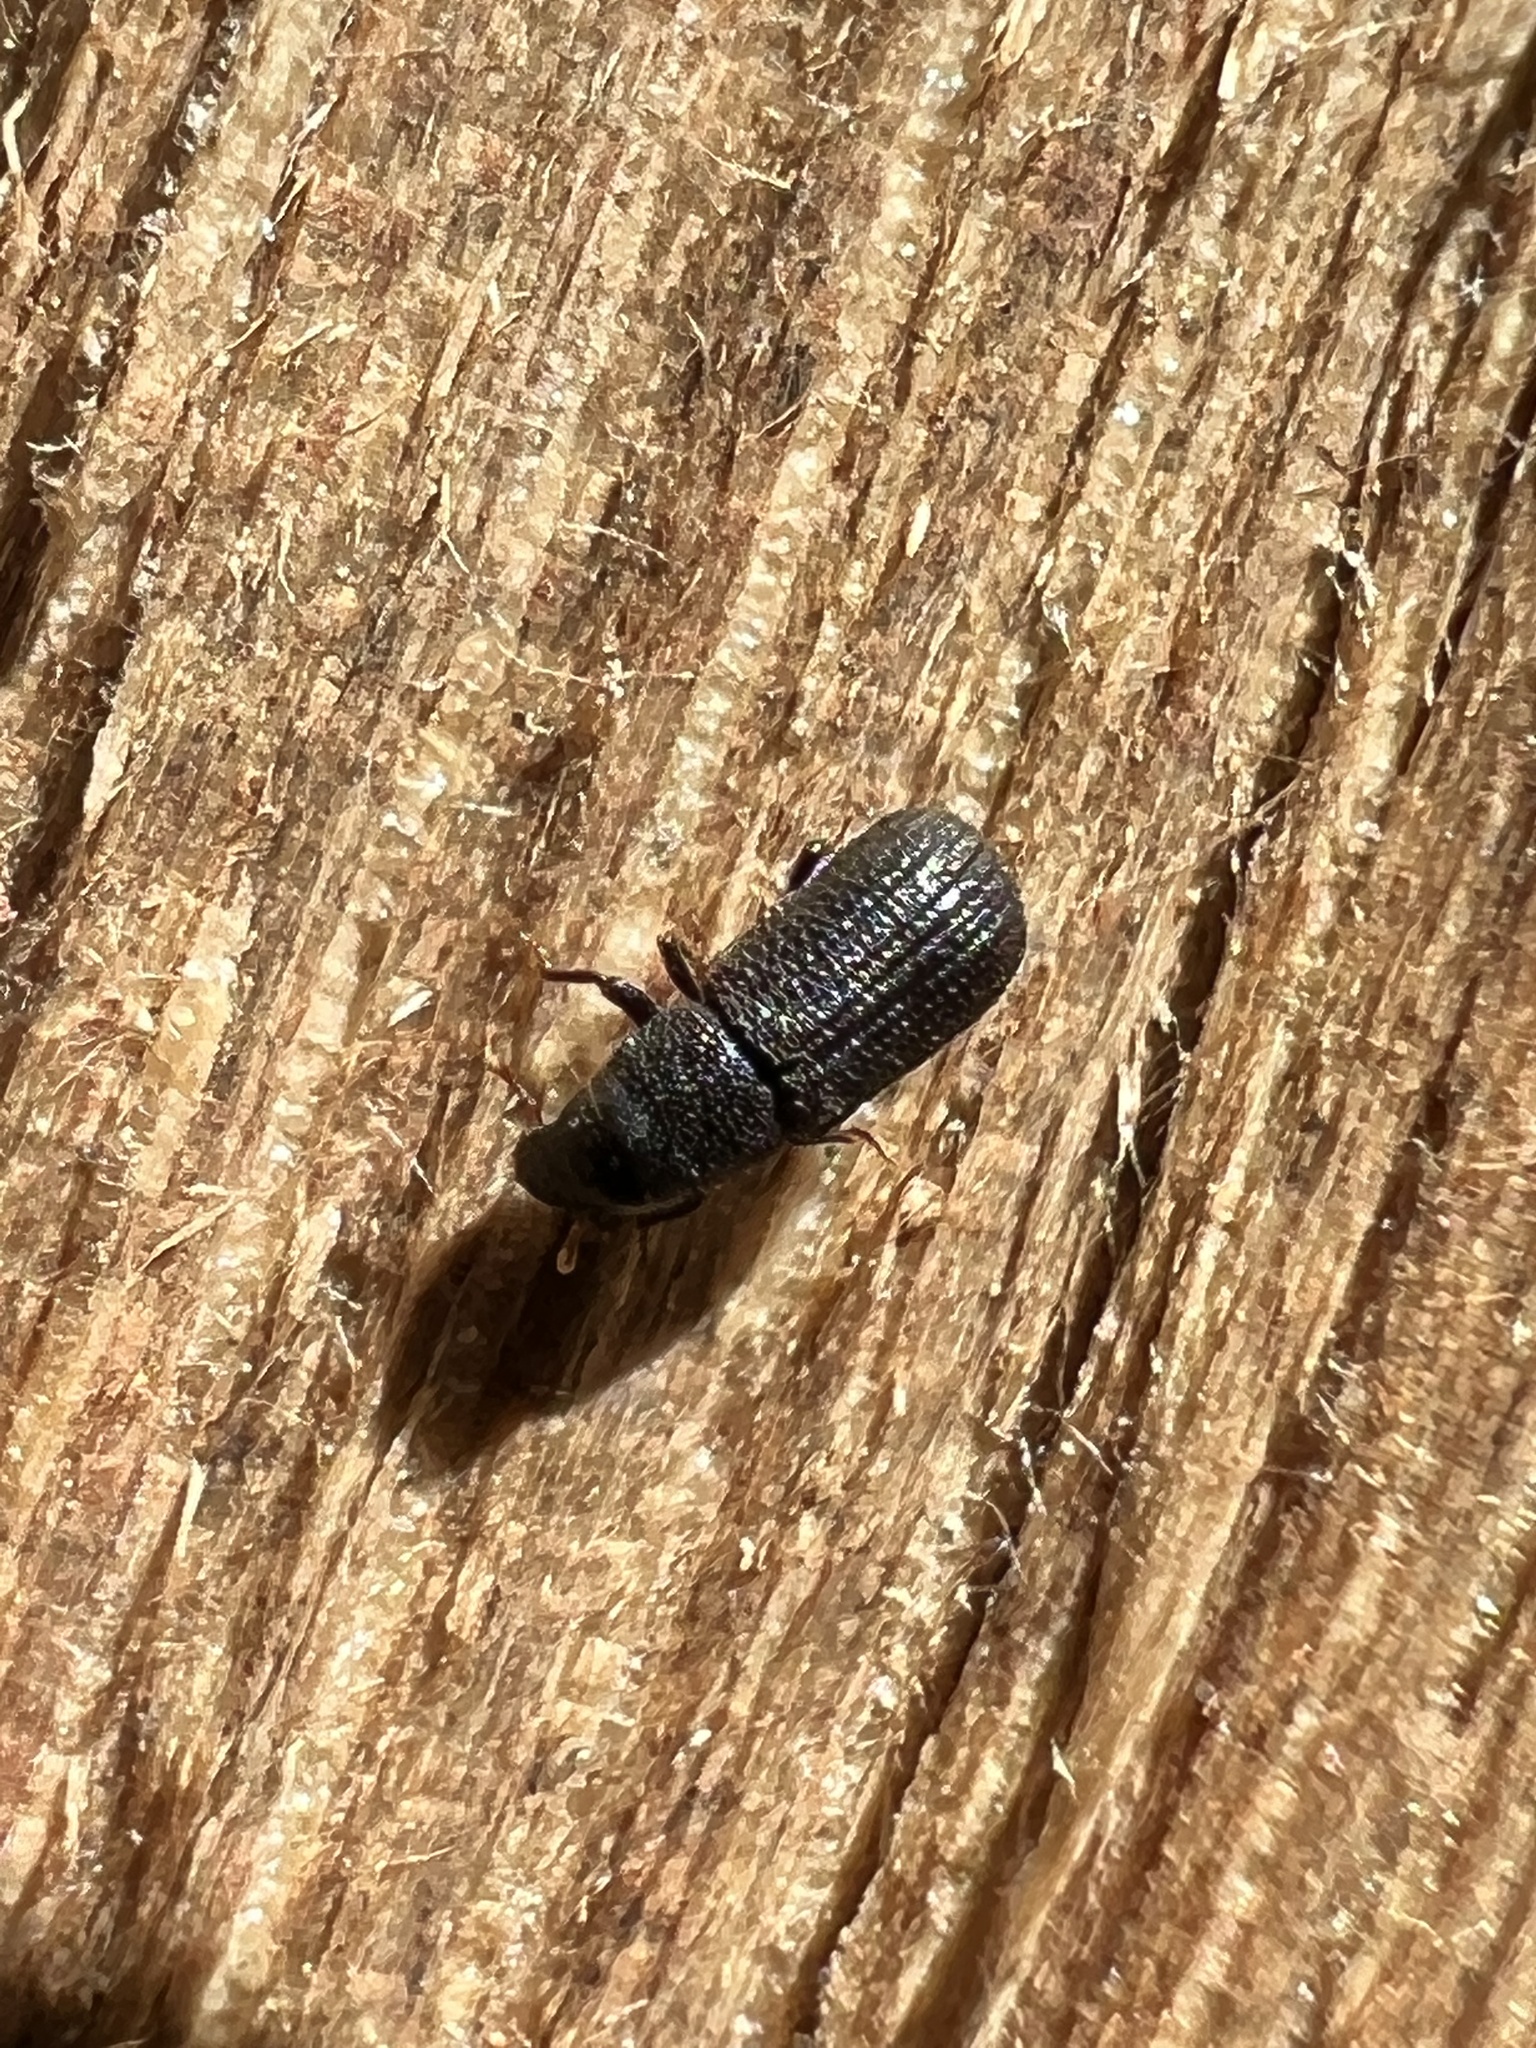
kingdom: Animalia
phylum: Arthropoda
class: Insecta
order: Coleoptera
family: Curculionidae
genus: Stenoscelis
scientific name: Stenoscelis brevis
